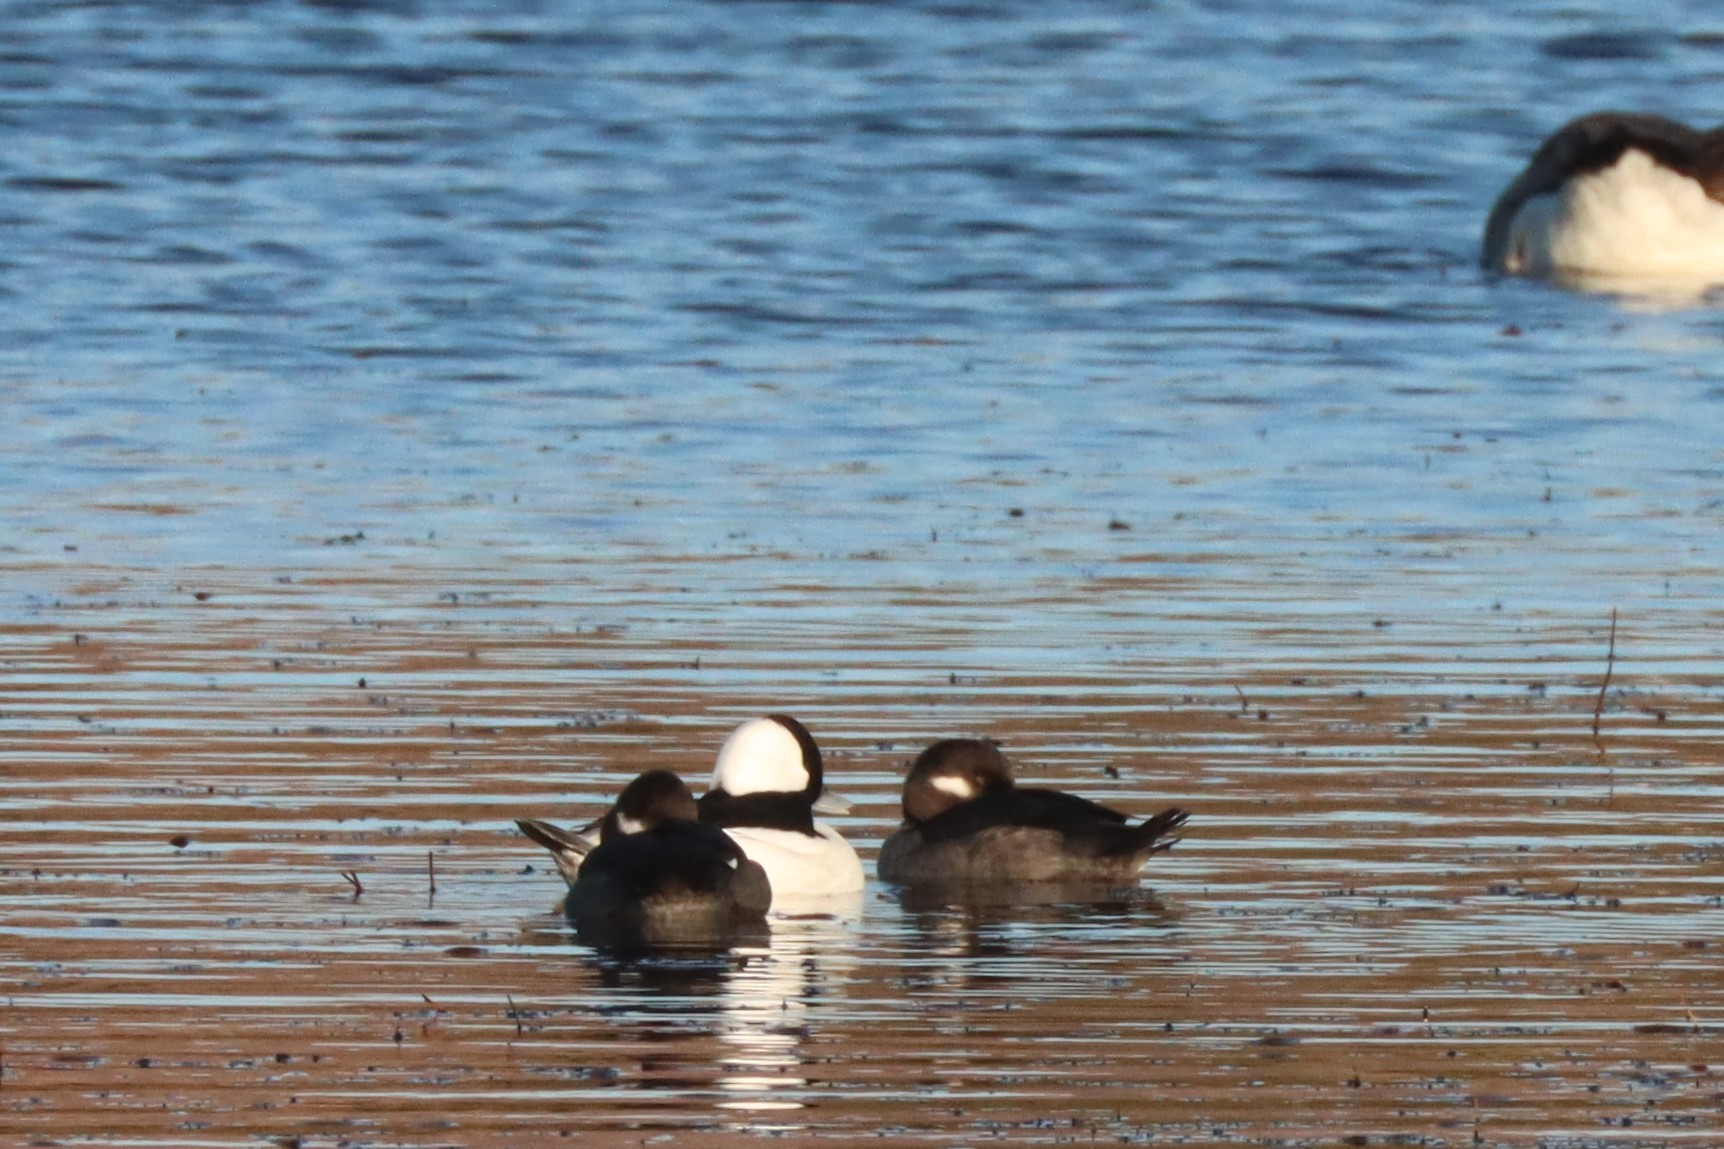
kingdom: Animalia
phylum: Chordata
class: Aves
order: Anseriformes
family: Anatidae
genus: Bucephala
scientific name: Bucephala albeola
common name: Bufflehead
